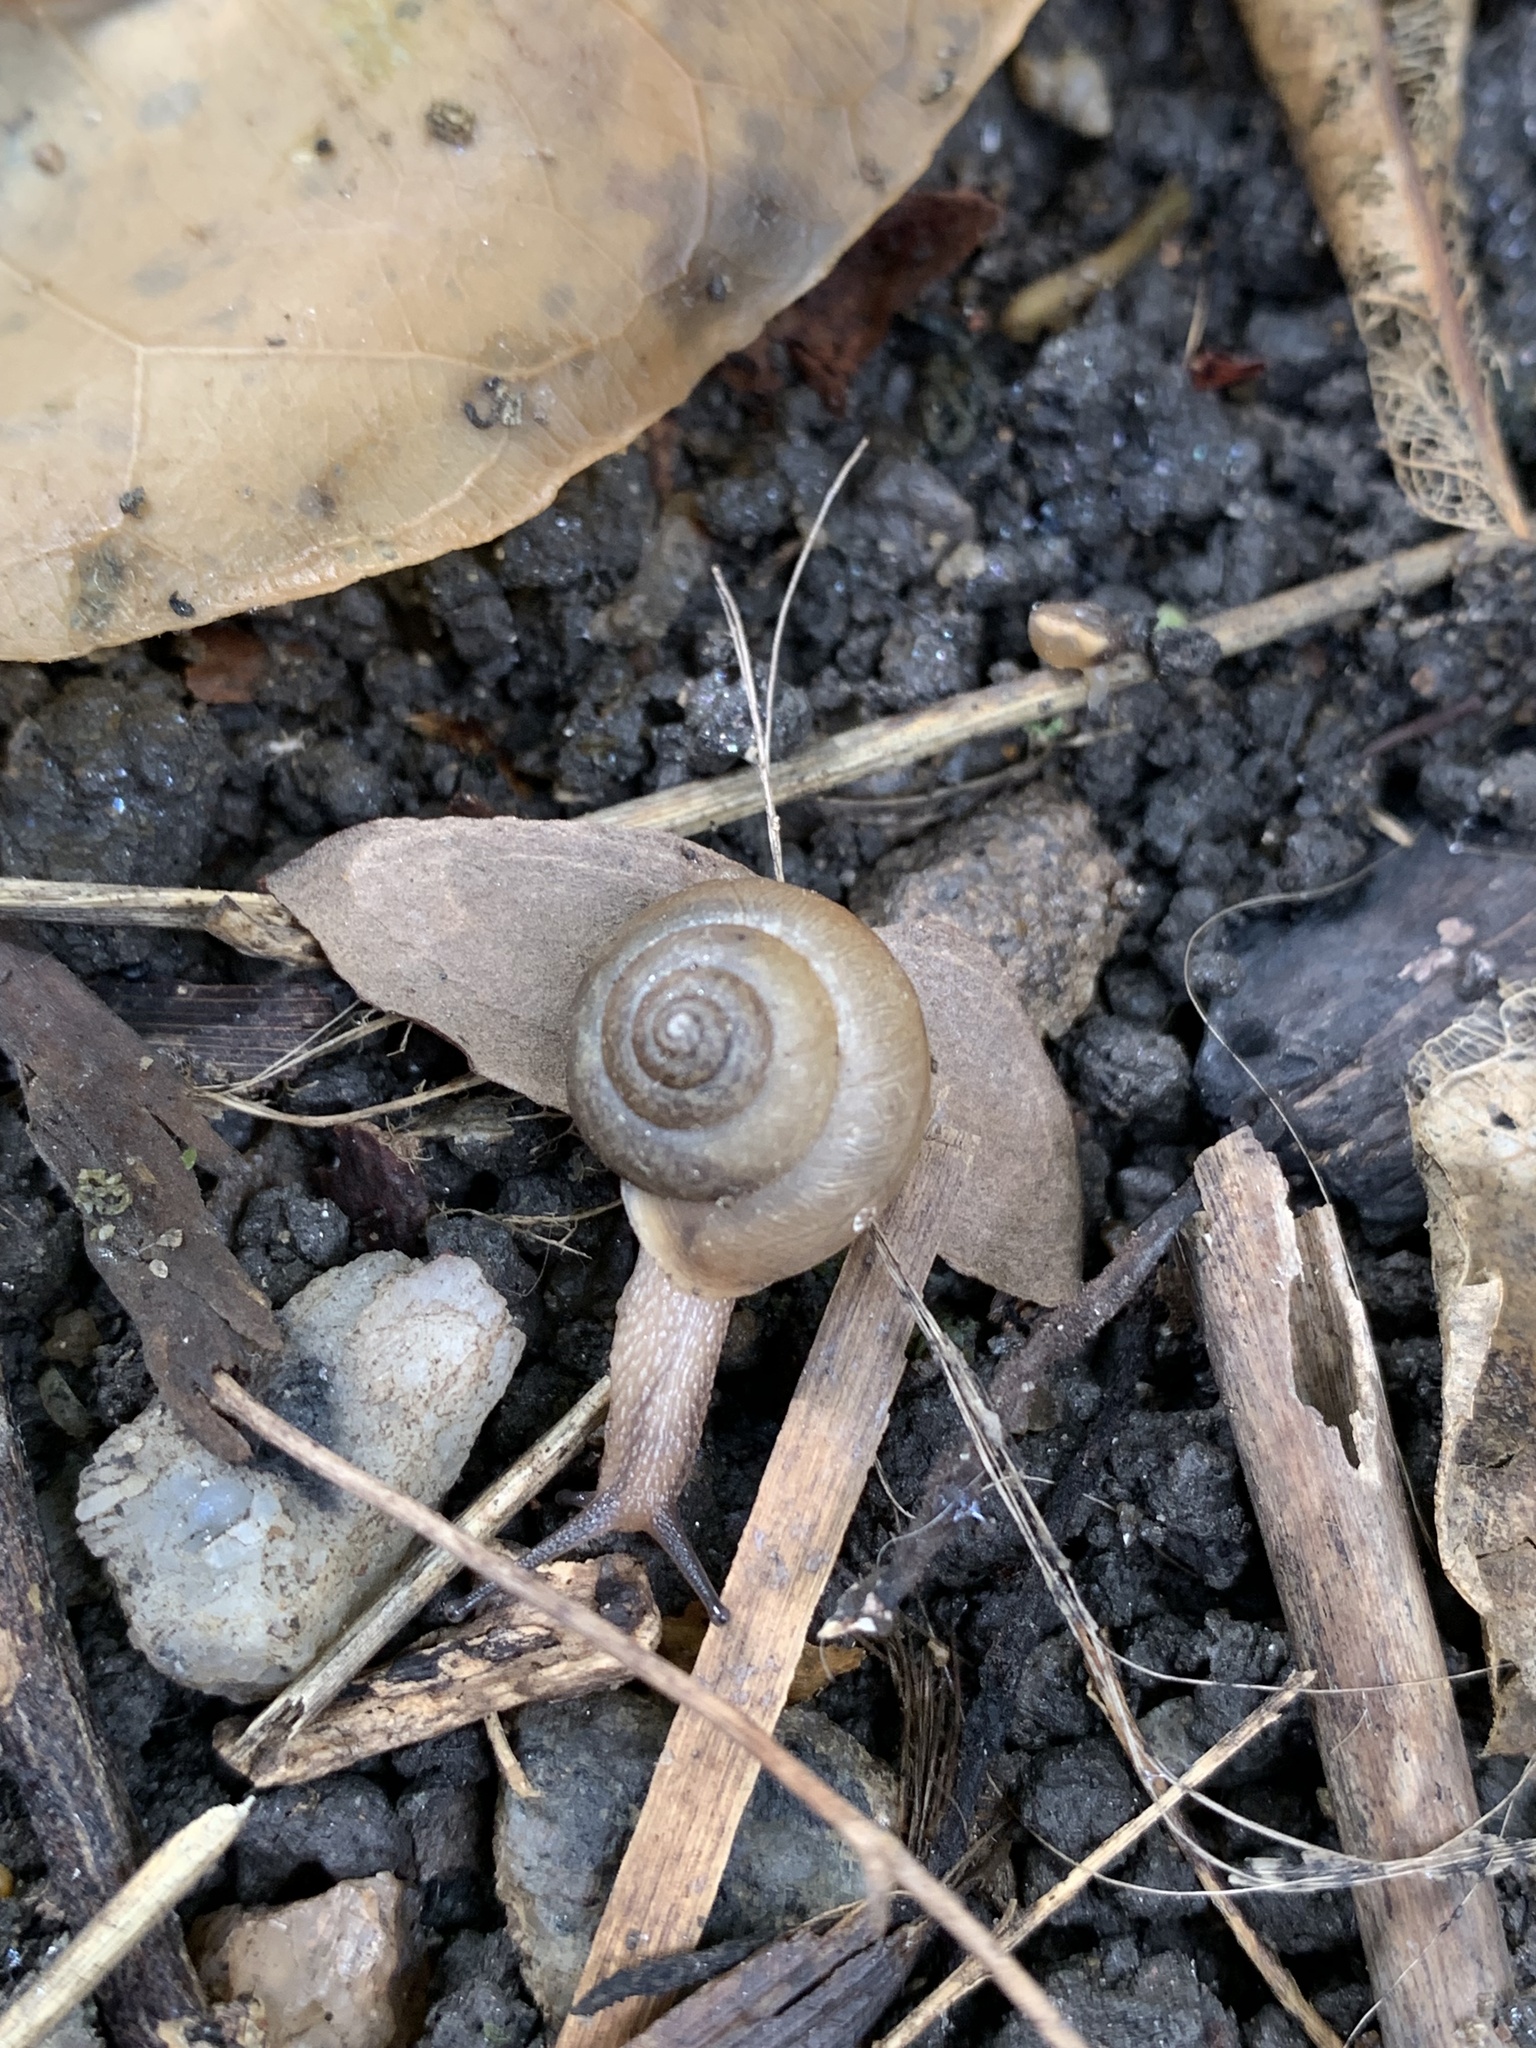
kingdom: Animalia
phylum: Mollusca
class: Gastropoda
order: Stylommatophora
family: Camaenidae
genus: Bradybaena
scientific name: Bradybaena similaris
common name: Asian trampsnail
